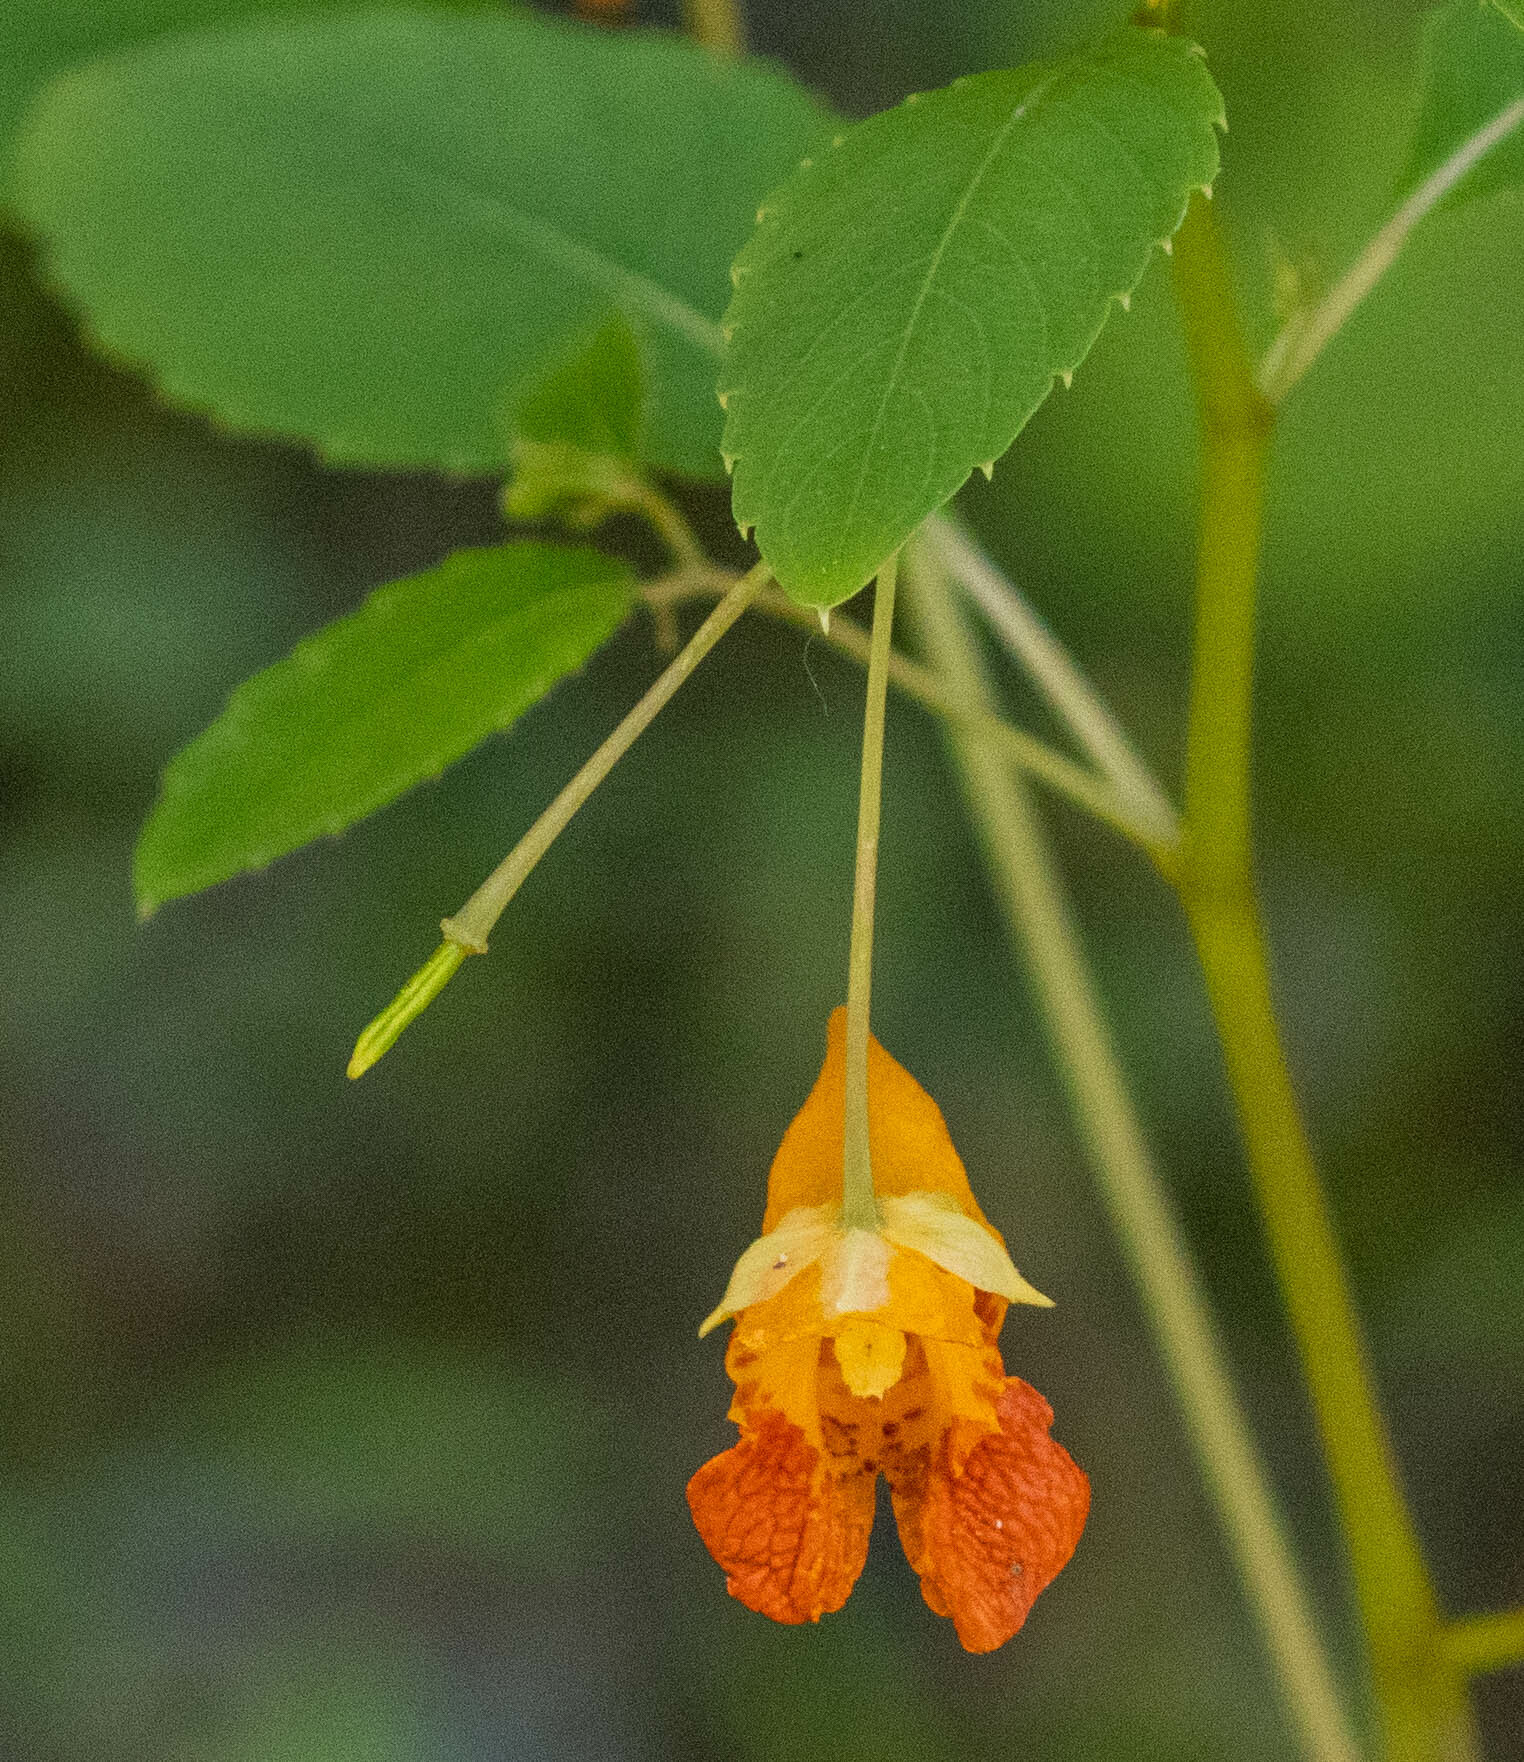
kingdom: Plantae
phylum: Tracheophyta
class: Magnoliopsida
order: Ericales
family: Balsaminaceae
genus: Impatiens
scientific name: Impatiens capensis
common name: Orange balsam
